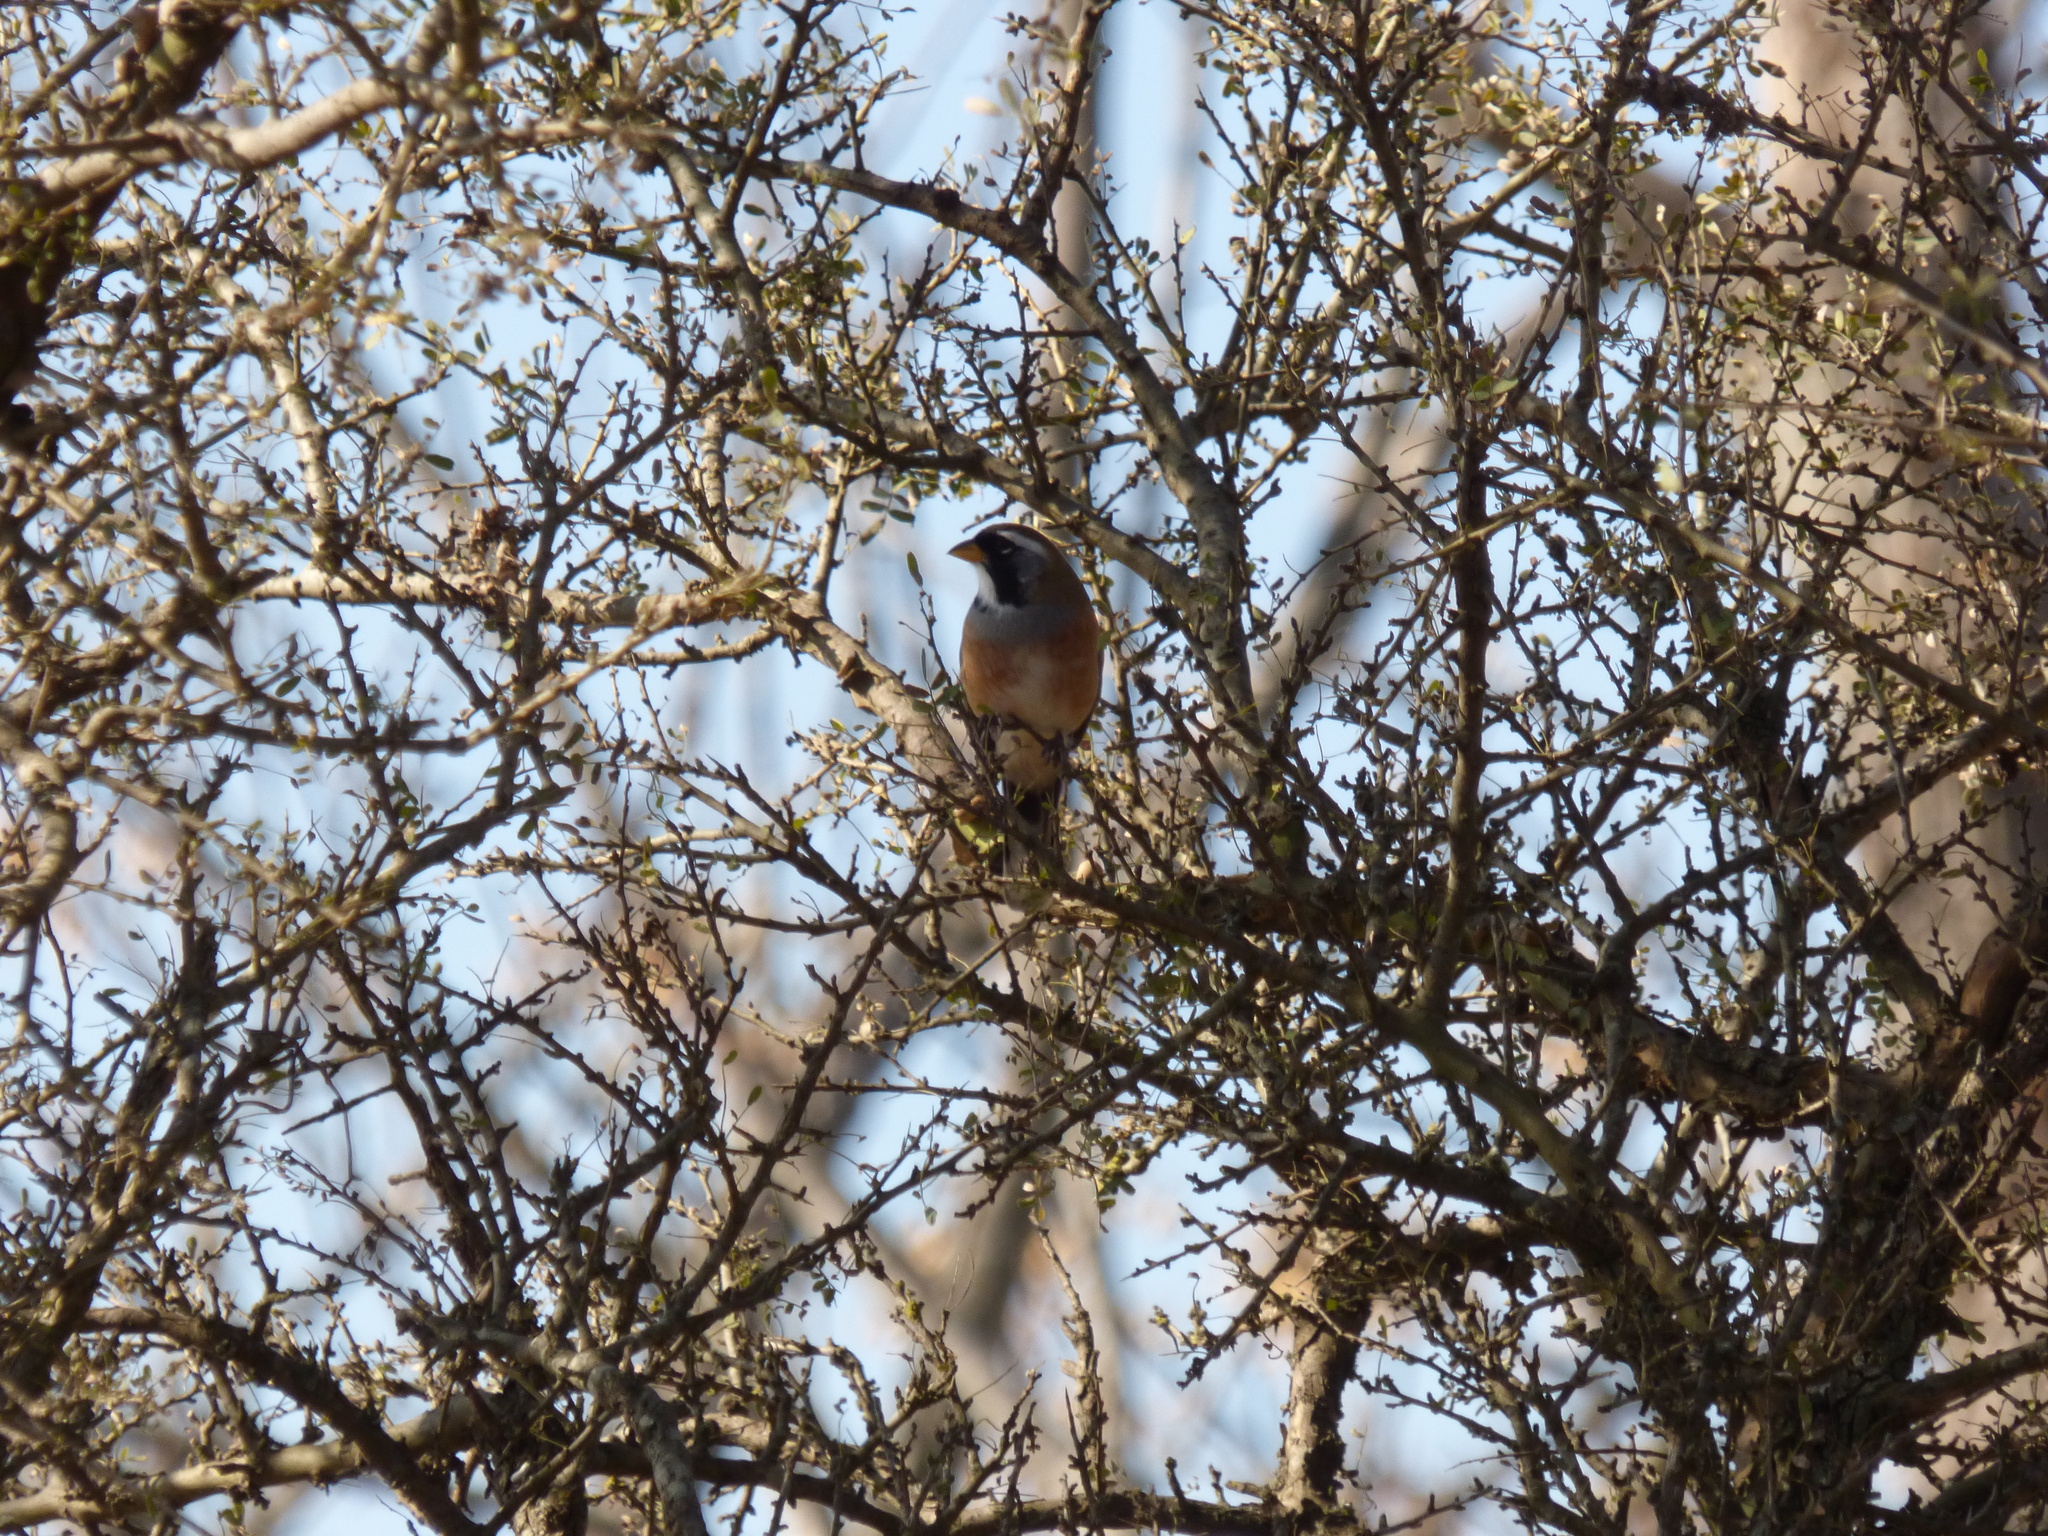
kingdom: Animalia
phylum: Chordata
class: Aves
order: Passeriformes
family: Thraupidae
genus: Saltatricula
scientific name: Saltatricula multicolor
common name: Many-colored chaco finch
